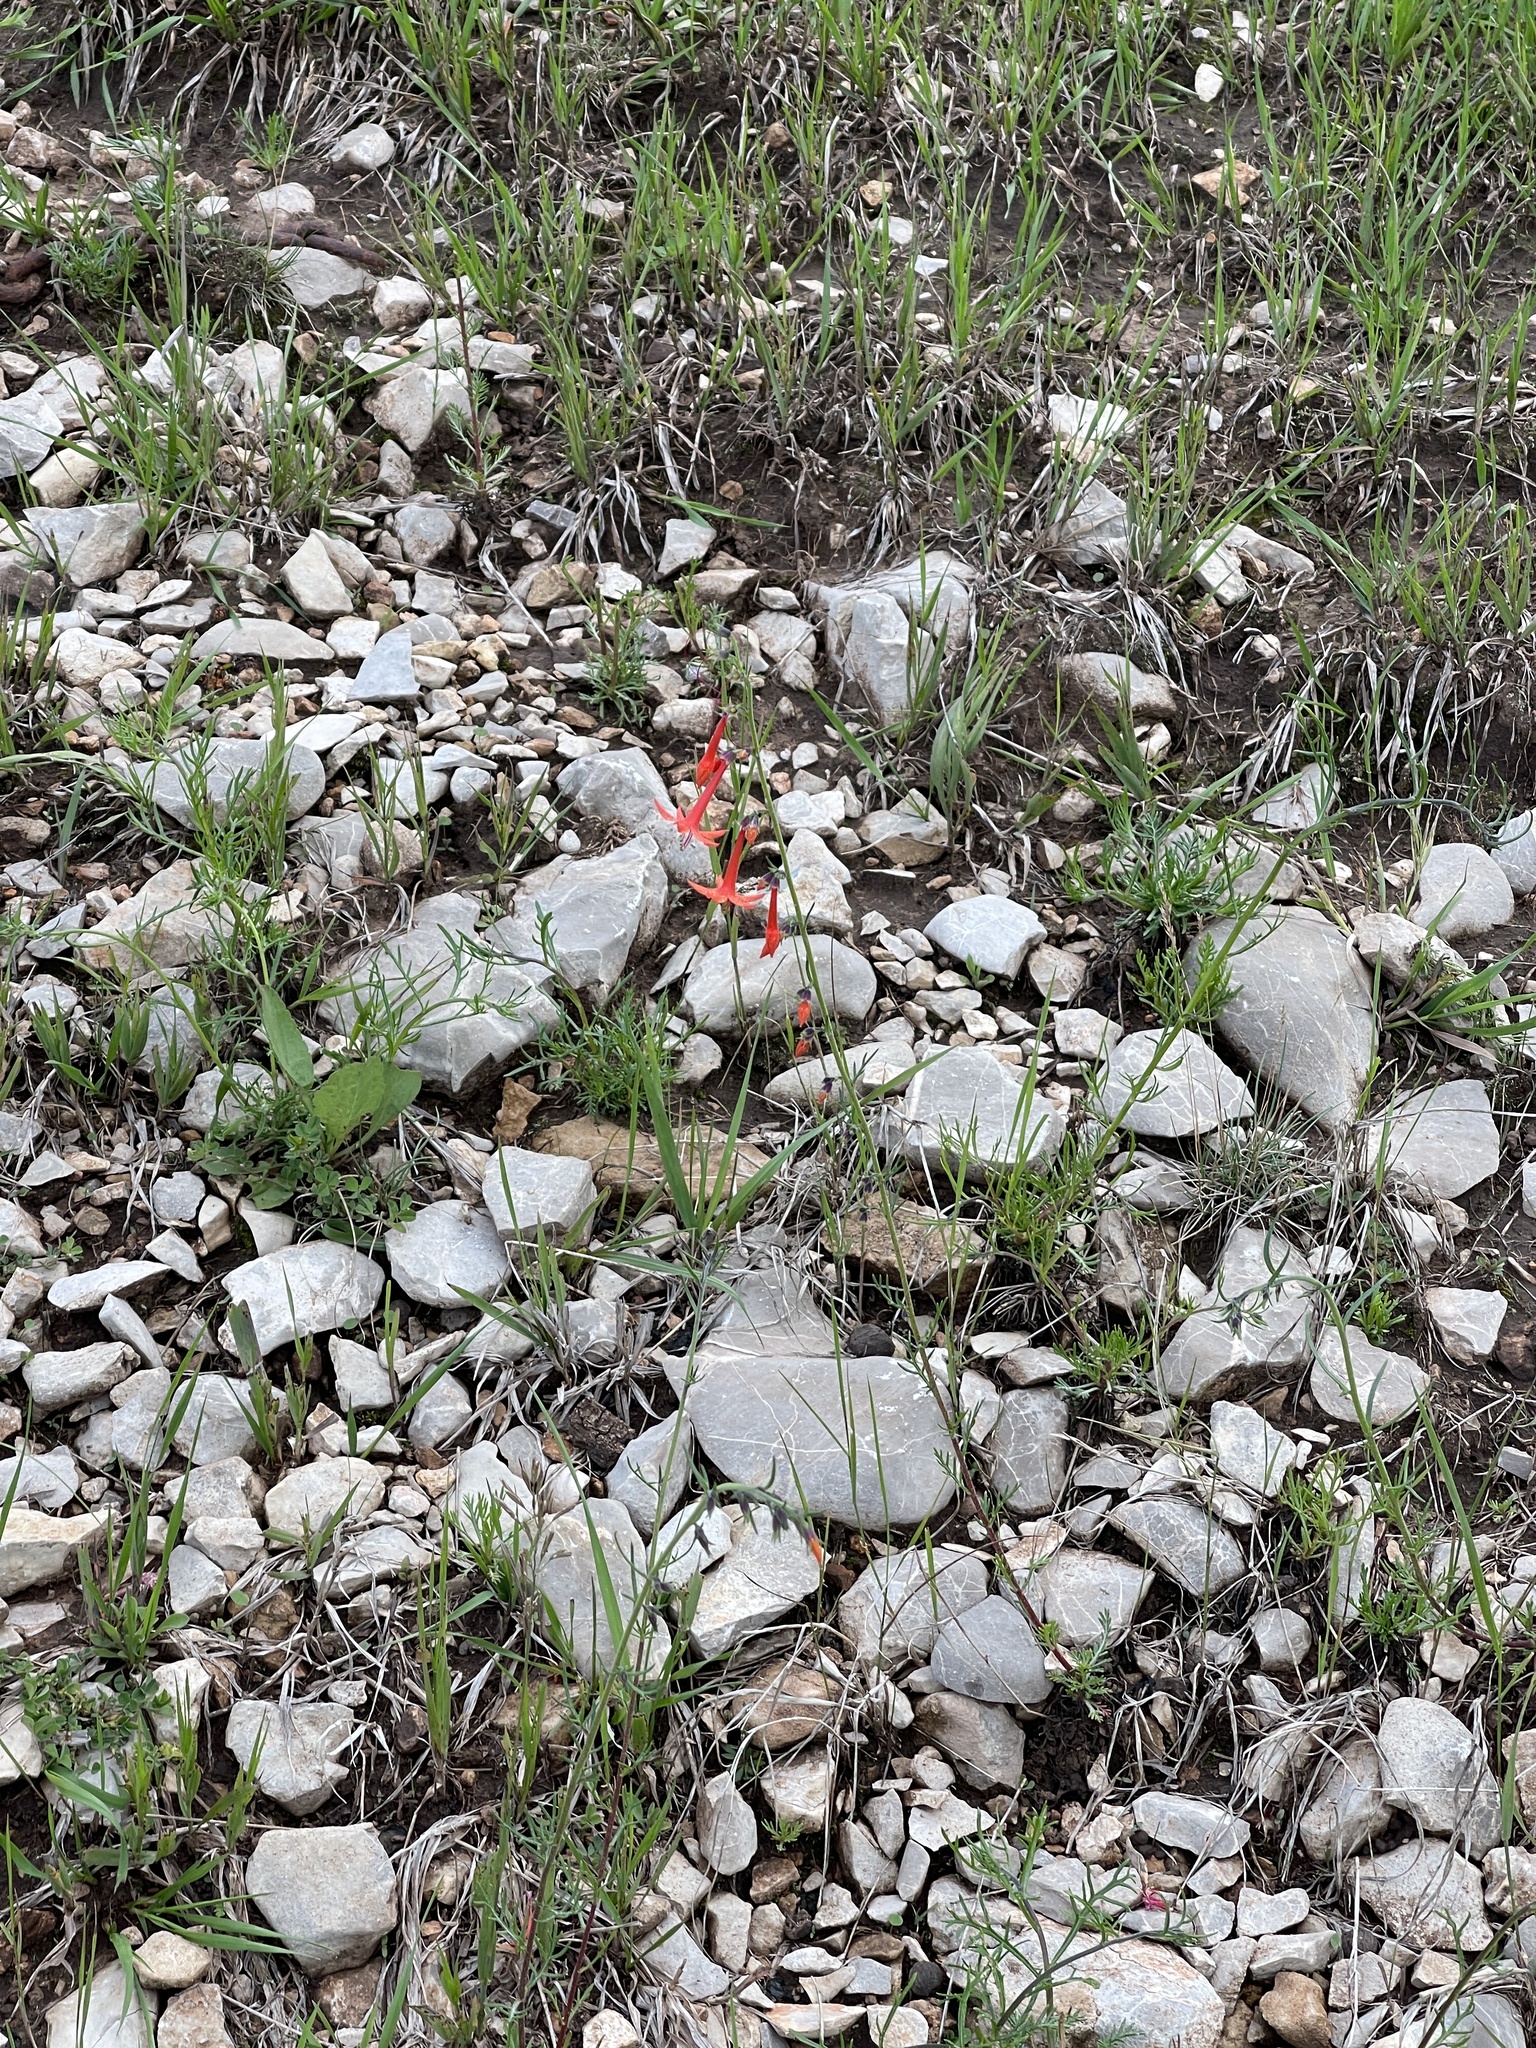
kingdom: Plantae
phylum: Tracheophyta
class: Magnoliopsida
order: Ericales
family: Polemoniaceae
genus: Ipomopsis
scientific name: Ipomopsis aggregata
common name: Scarlet gilia
